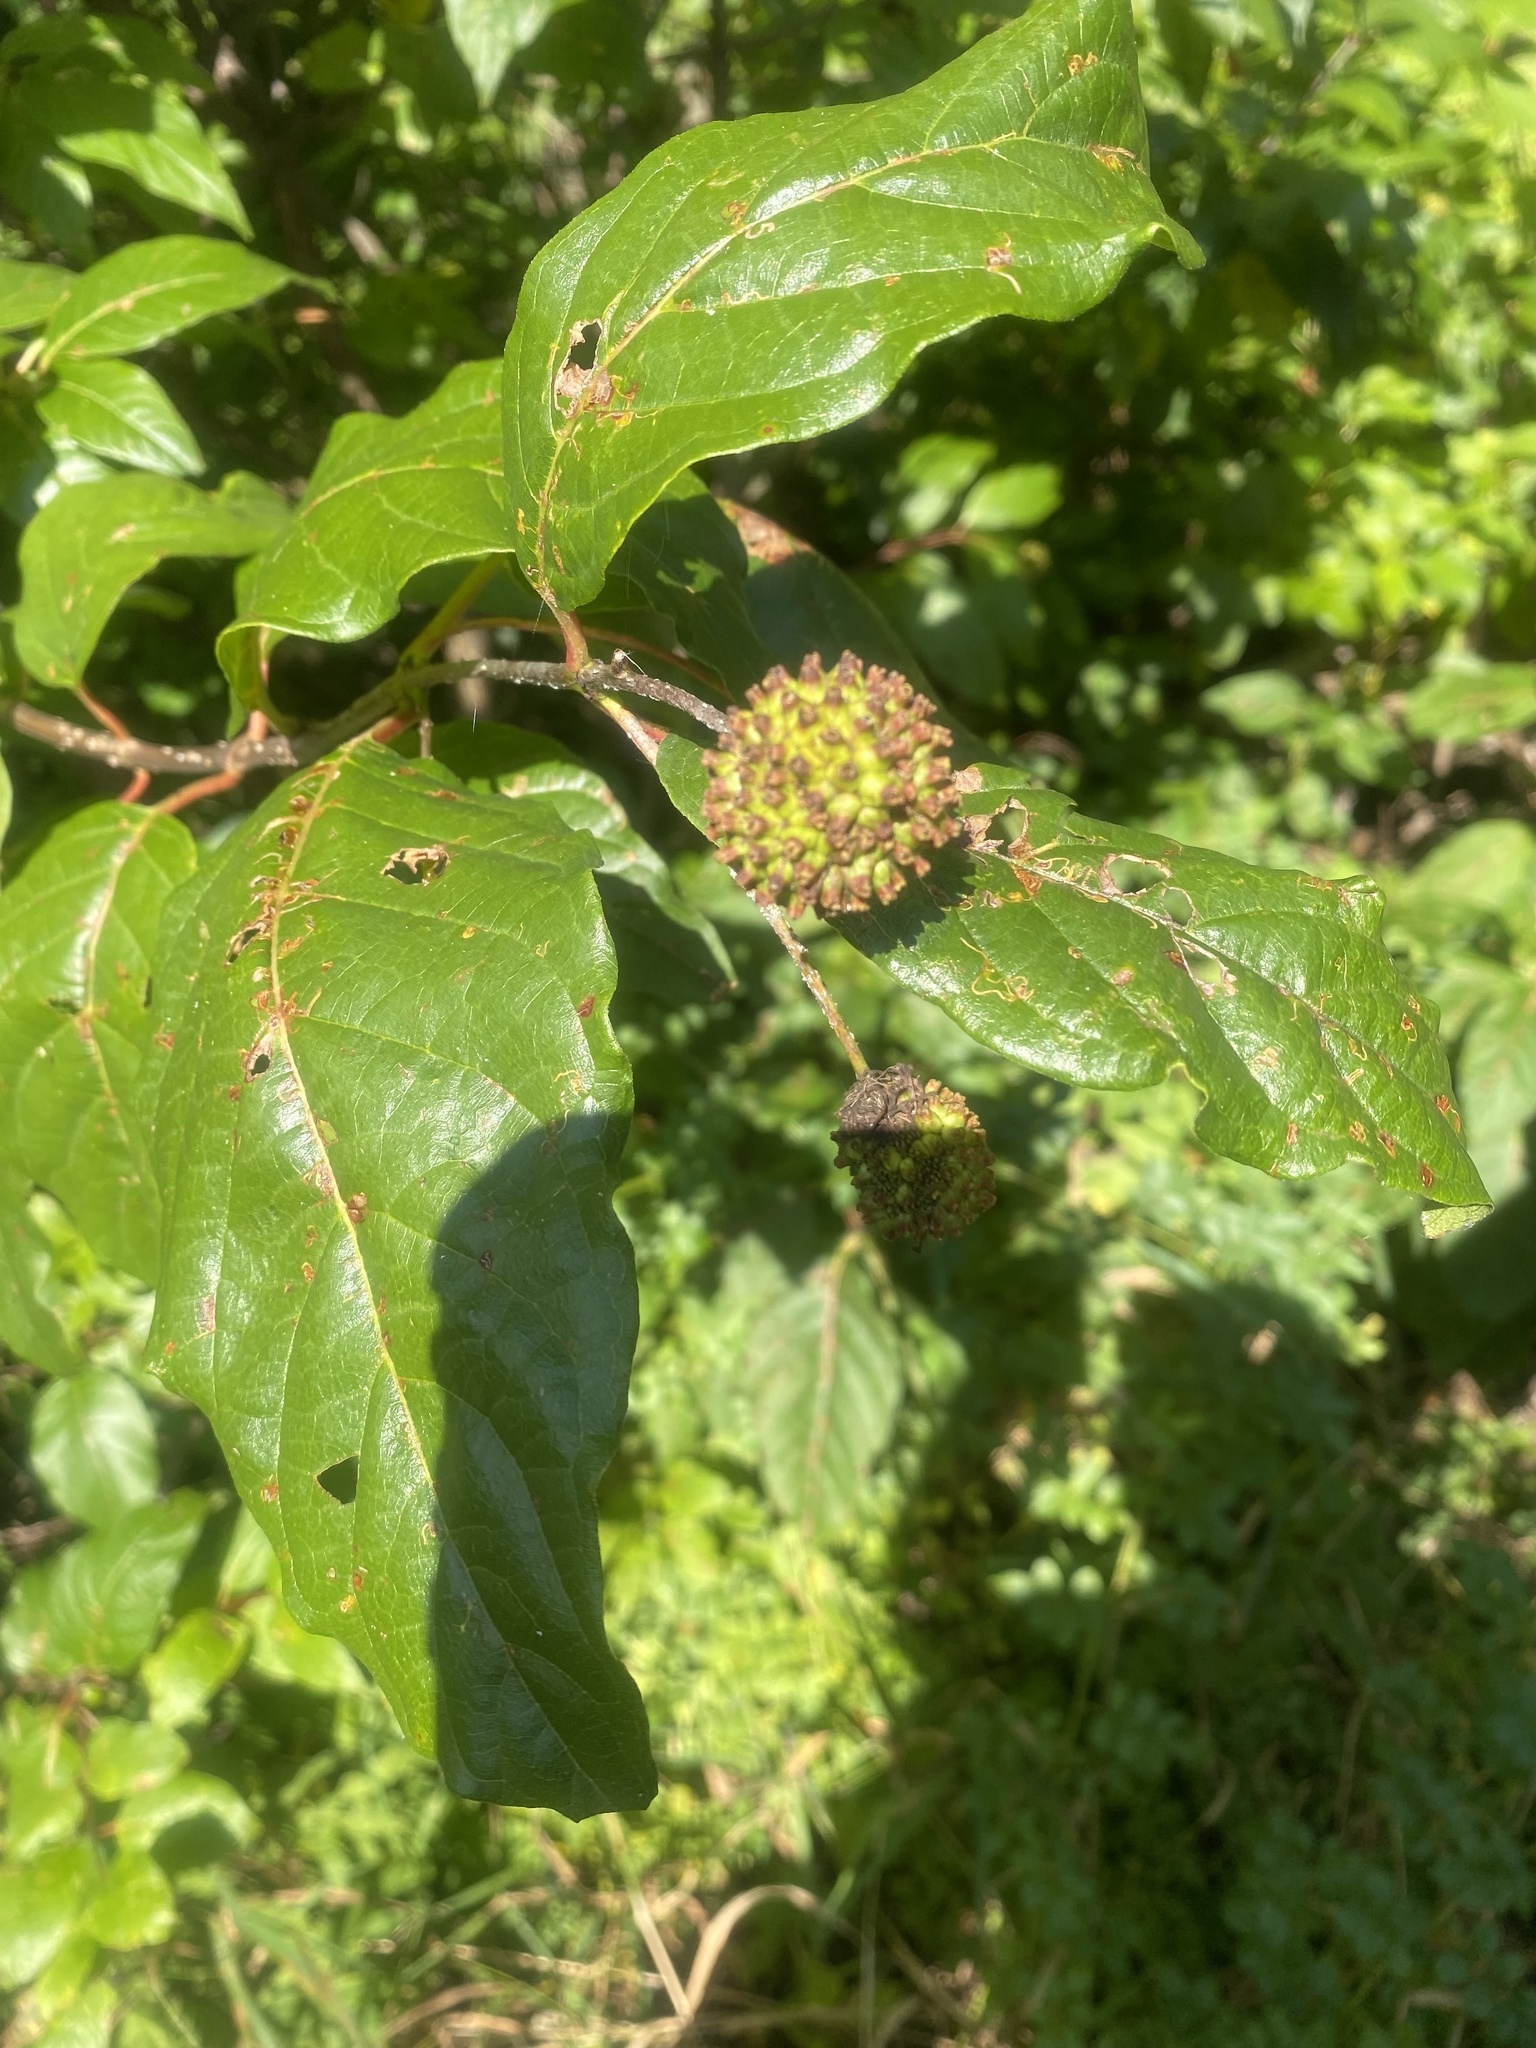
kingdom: Plantae
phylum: Tracheophyta
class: Magnoliopsida
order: Gentianales
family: Rubiaceae
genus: Cephalanthus
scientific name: Cephalanthus occidentalis
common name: Button-willow
